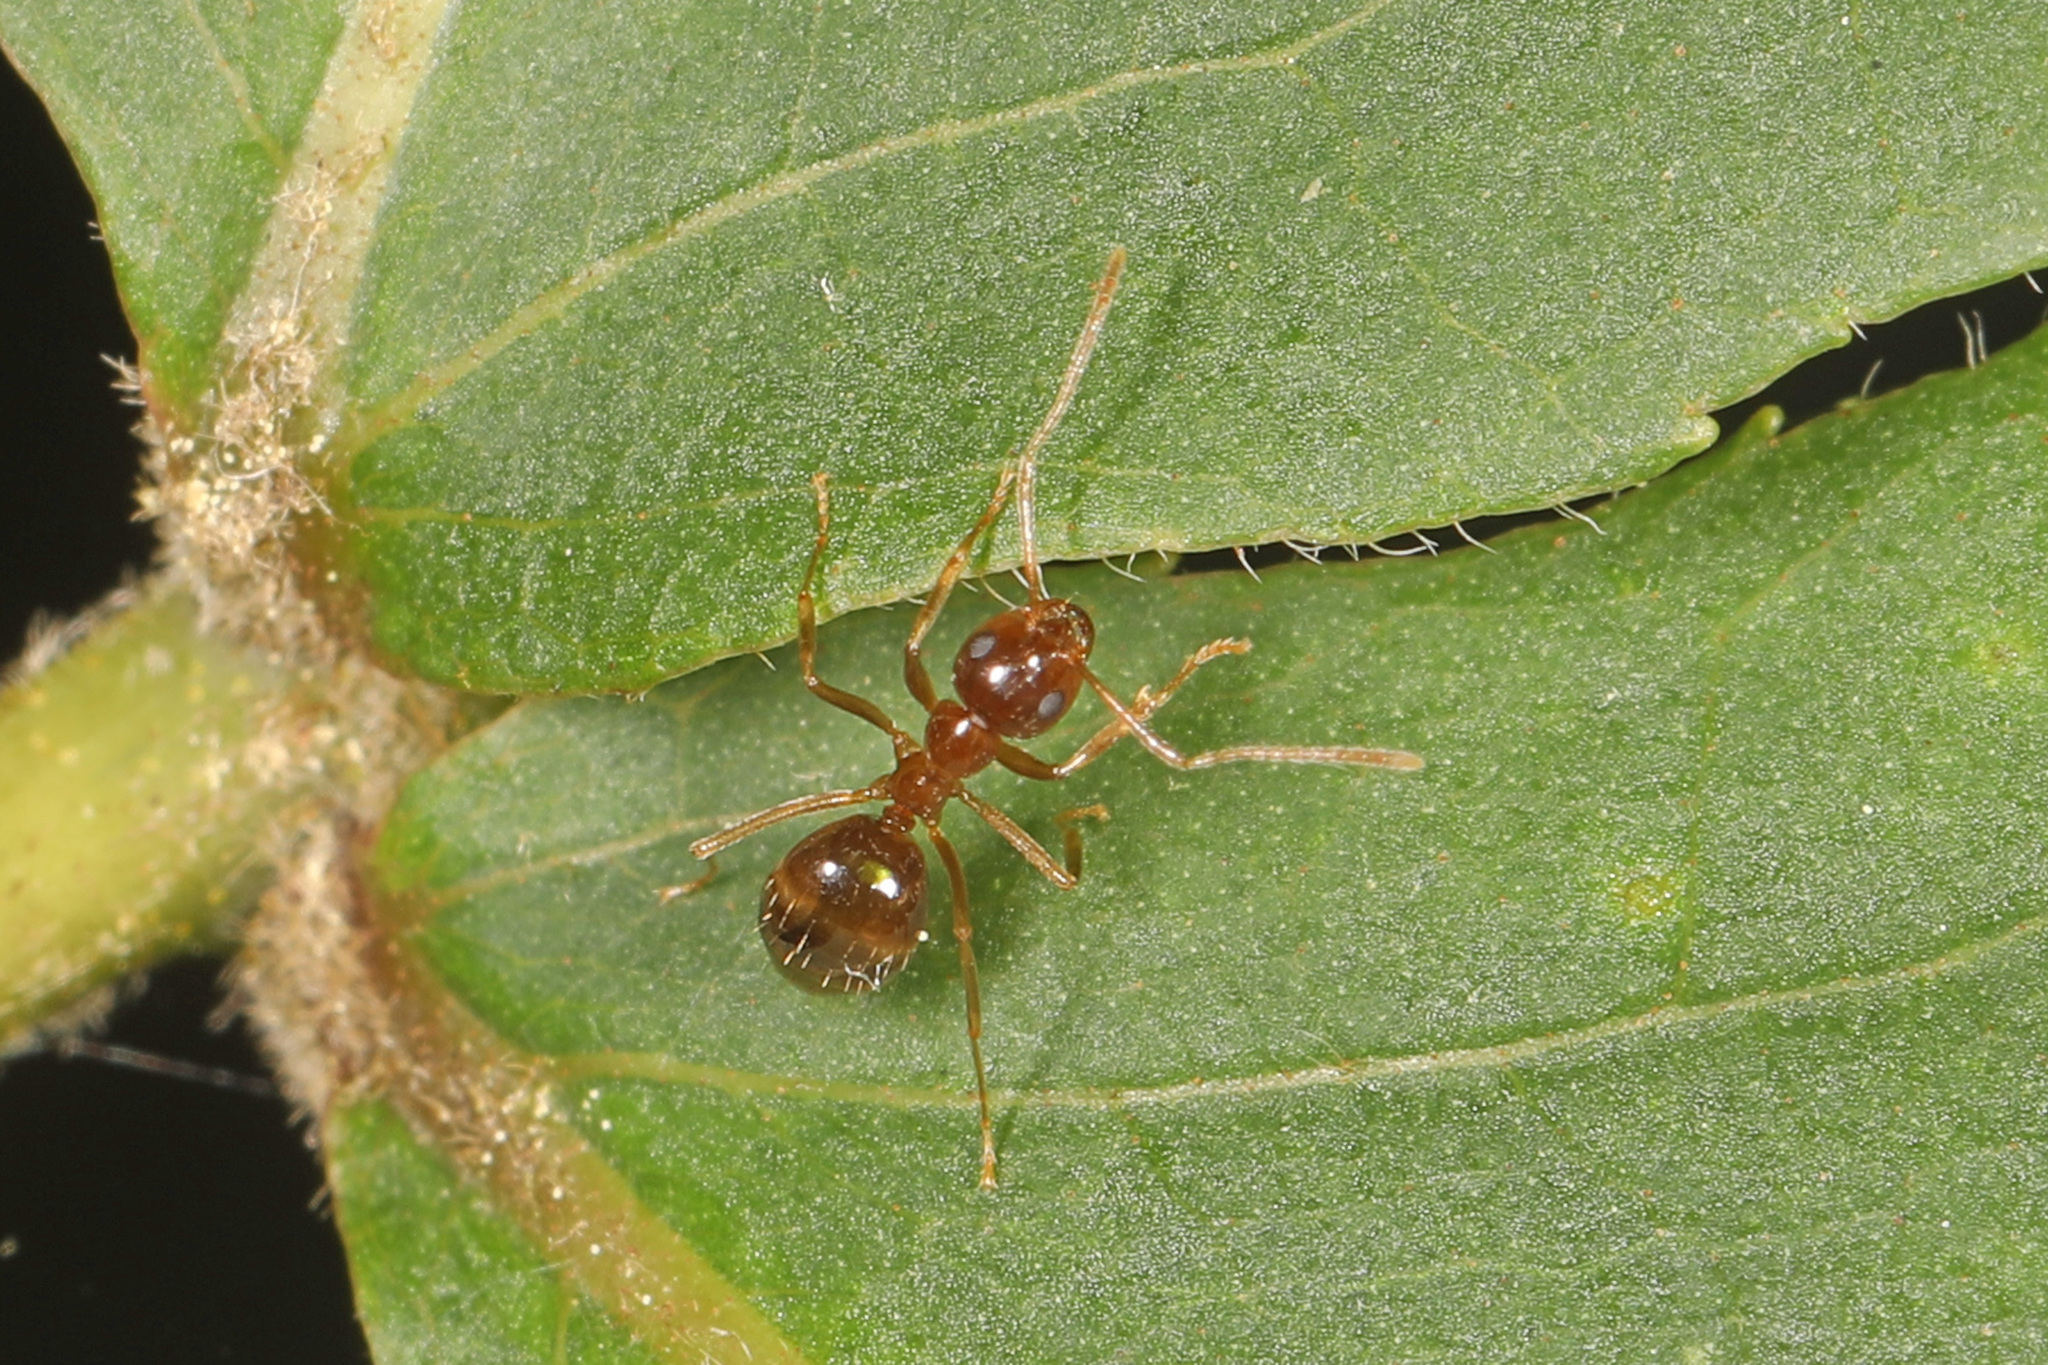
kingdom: Animalia
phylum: Arthropoda
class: Insecta
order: Hymenoptera
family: Formicidae
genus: Prenolepis
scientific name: Prenolepis imparis
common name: Small honey ant
